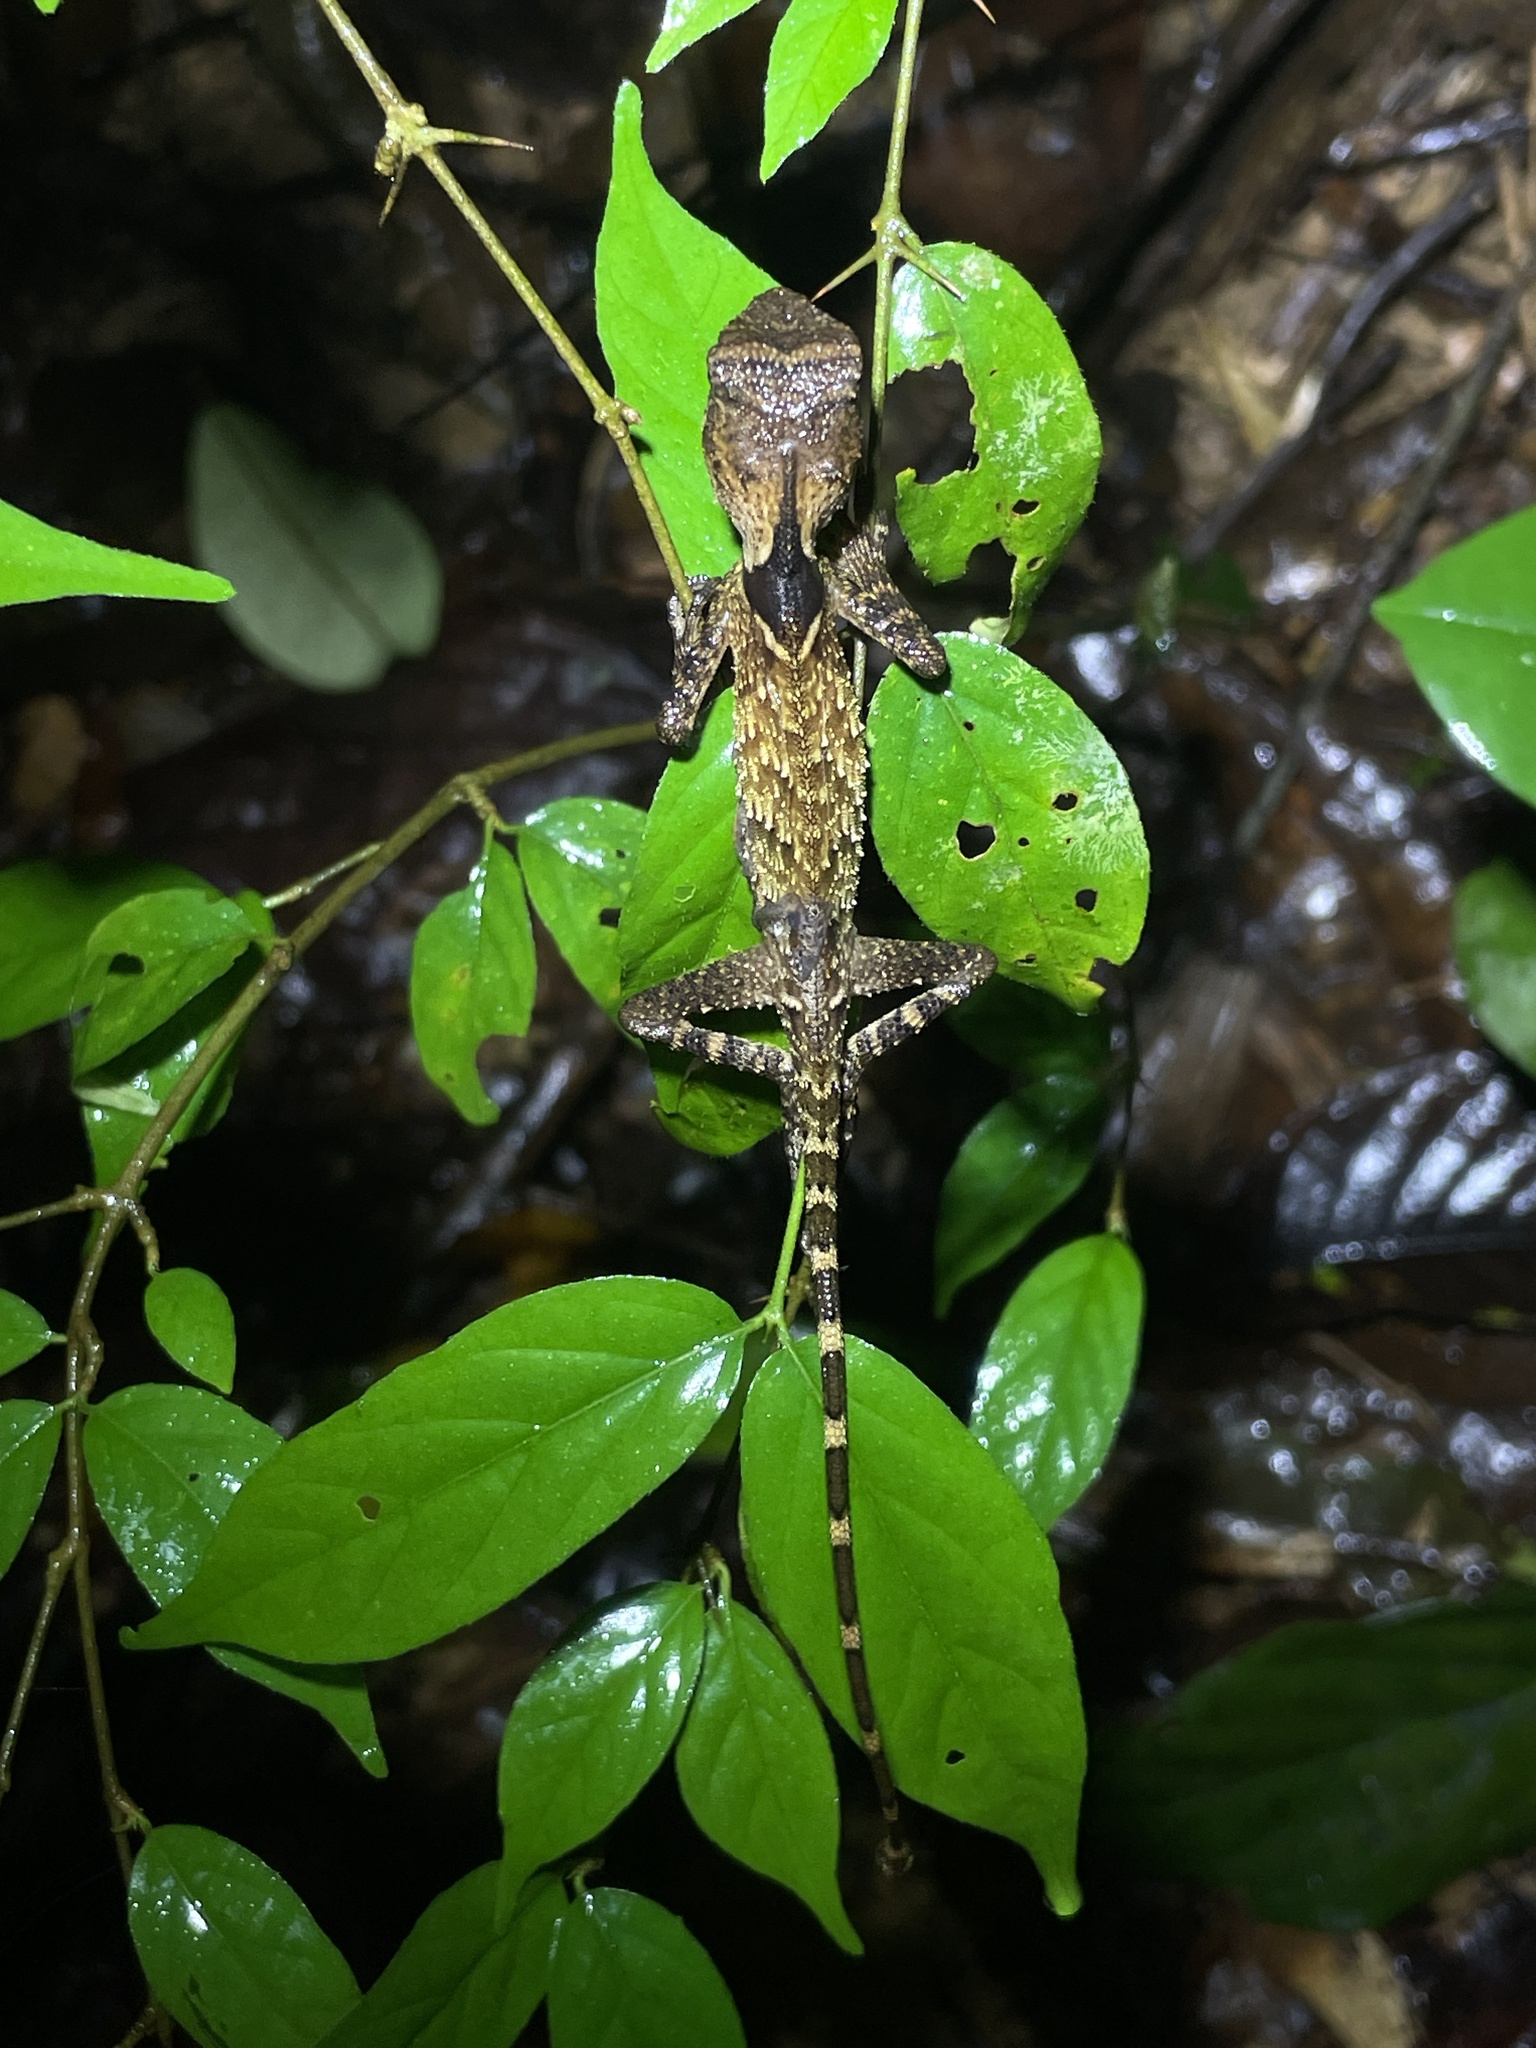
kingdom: Animalia
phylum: Chordata
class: Squamata
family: Agamidae
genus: Acanthosaura
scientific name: Acanthosaura phuketensis
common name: Phuket horned tree agamid
